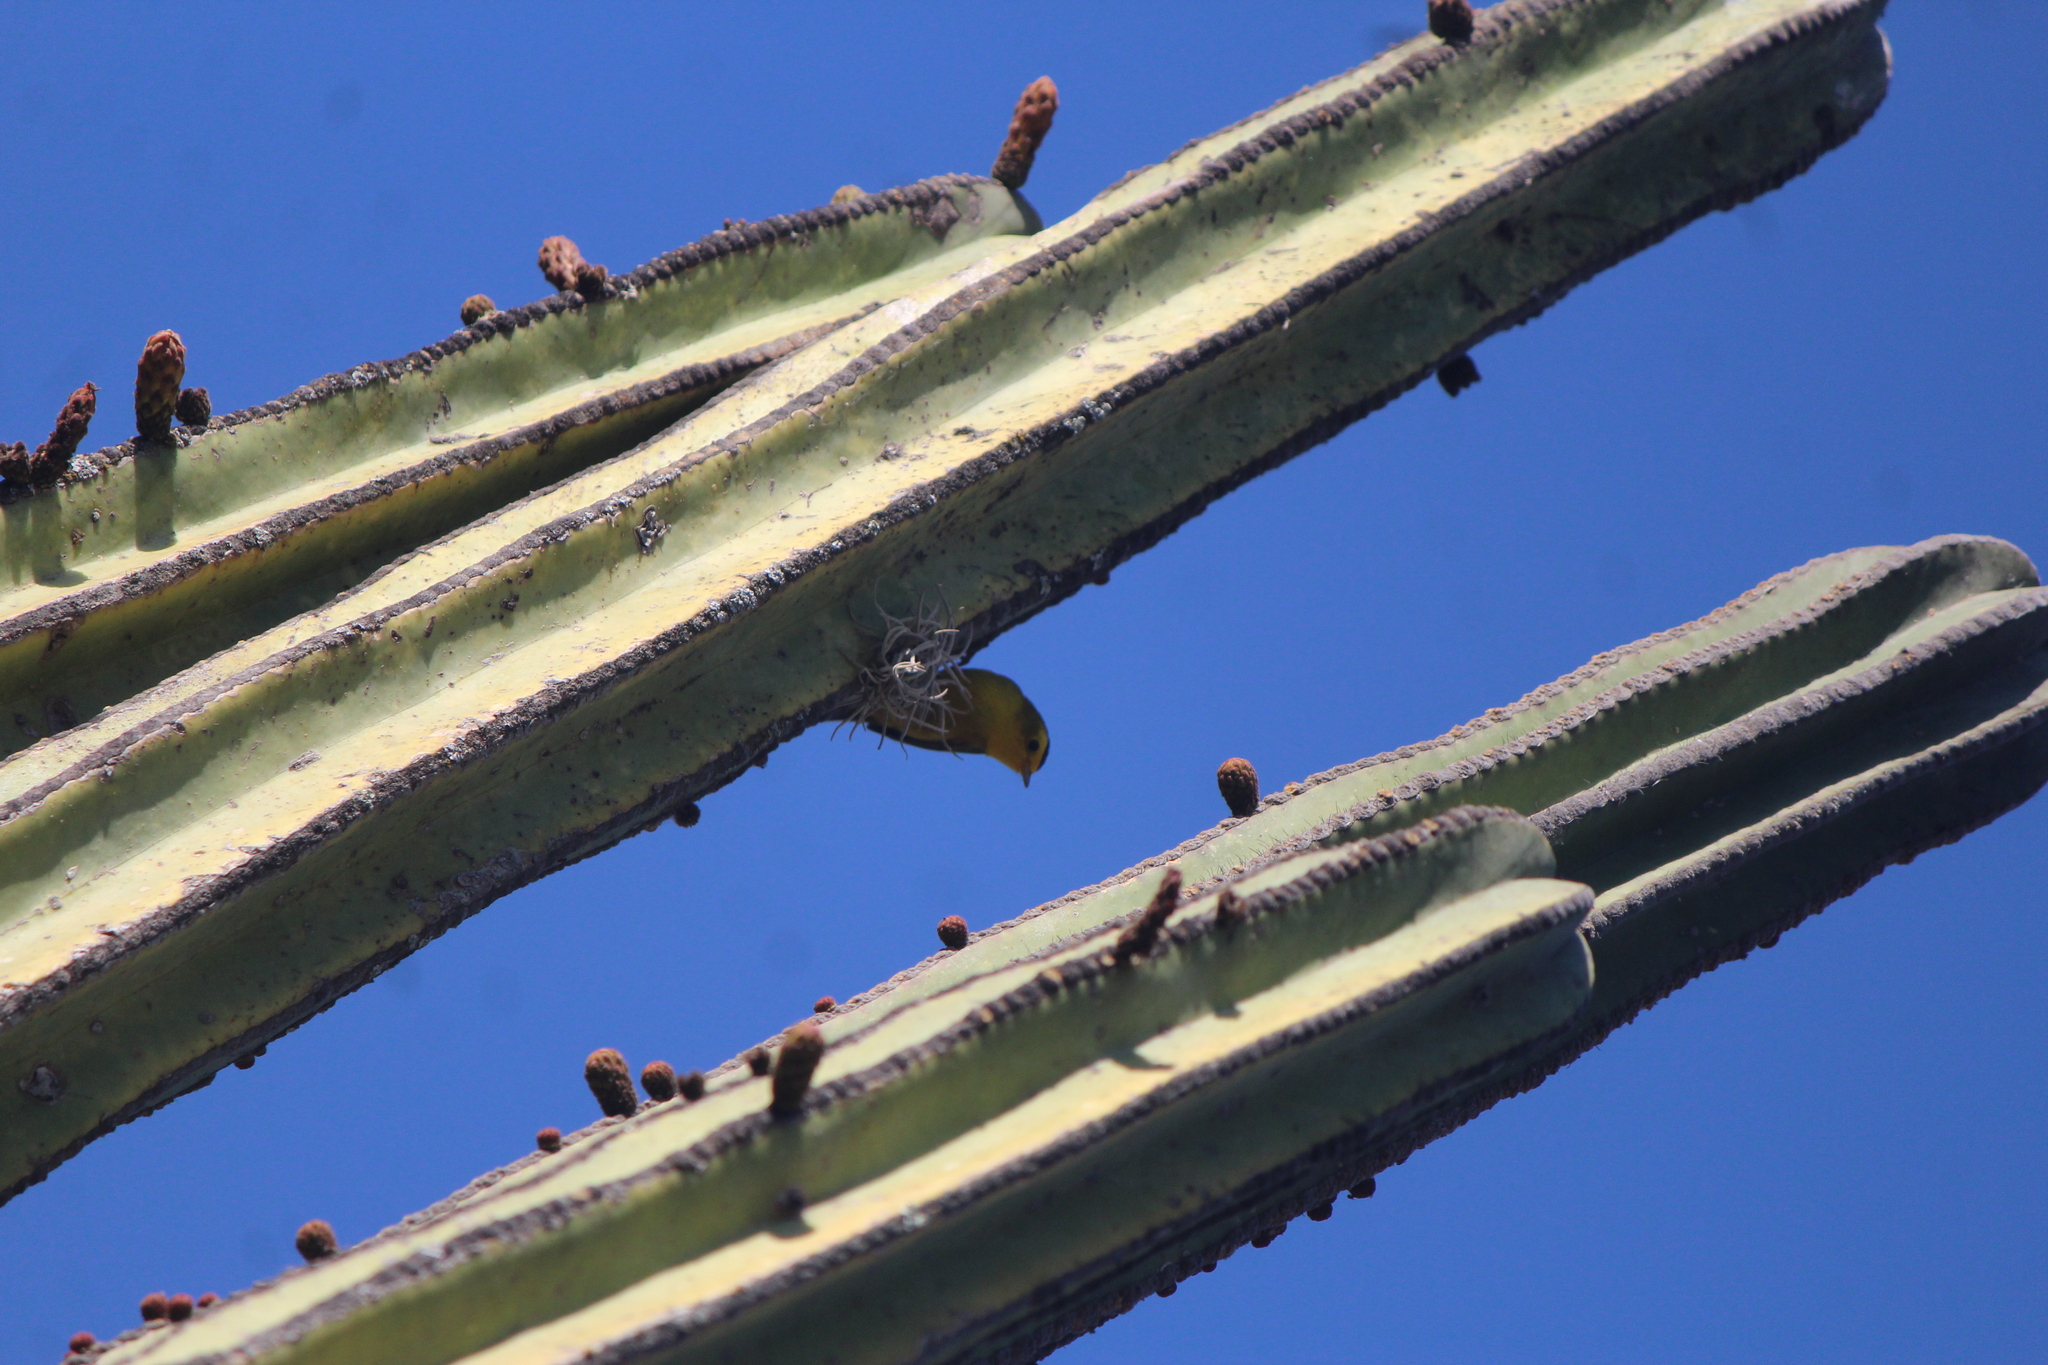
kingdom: Animalia
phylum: Chordata
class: Aves
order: Passeriformes
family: Parulidae
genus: Cardellina
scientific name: Cardellina pusilla
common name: Wilson's warbler
